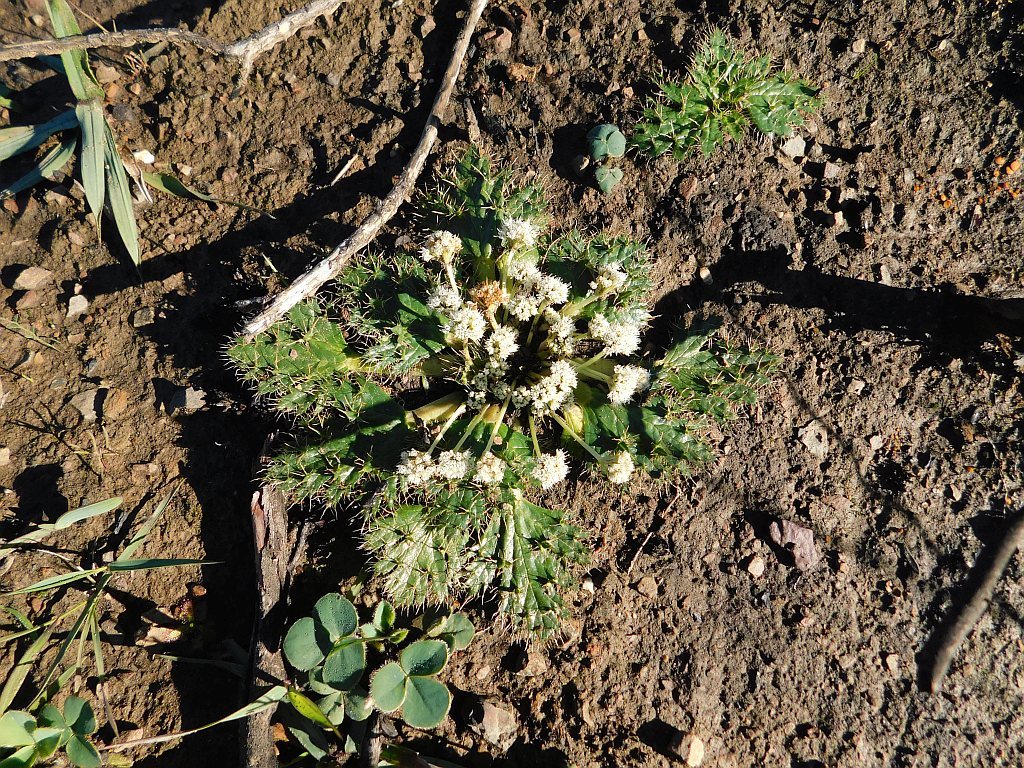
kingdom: Plantae
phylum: Tracheophyta
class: Magnoliopsida
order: Apiales
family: Apiaceae
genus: Arctopus
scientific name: Arctopus echinatus
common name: Platdoring
